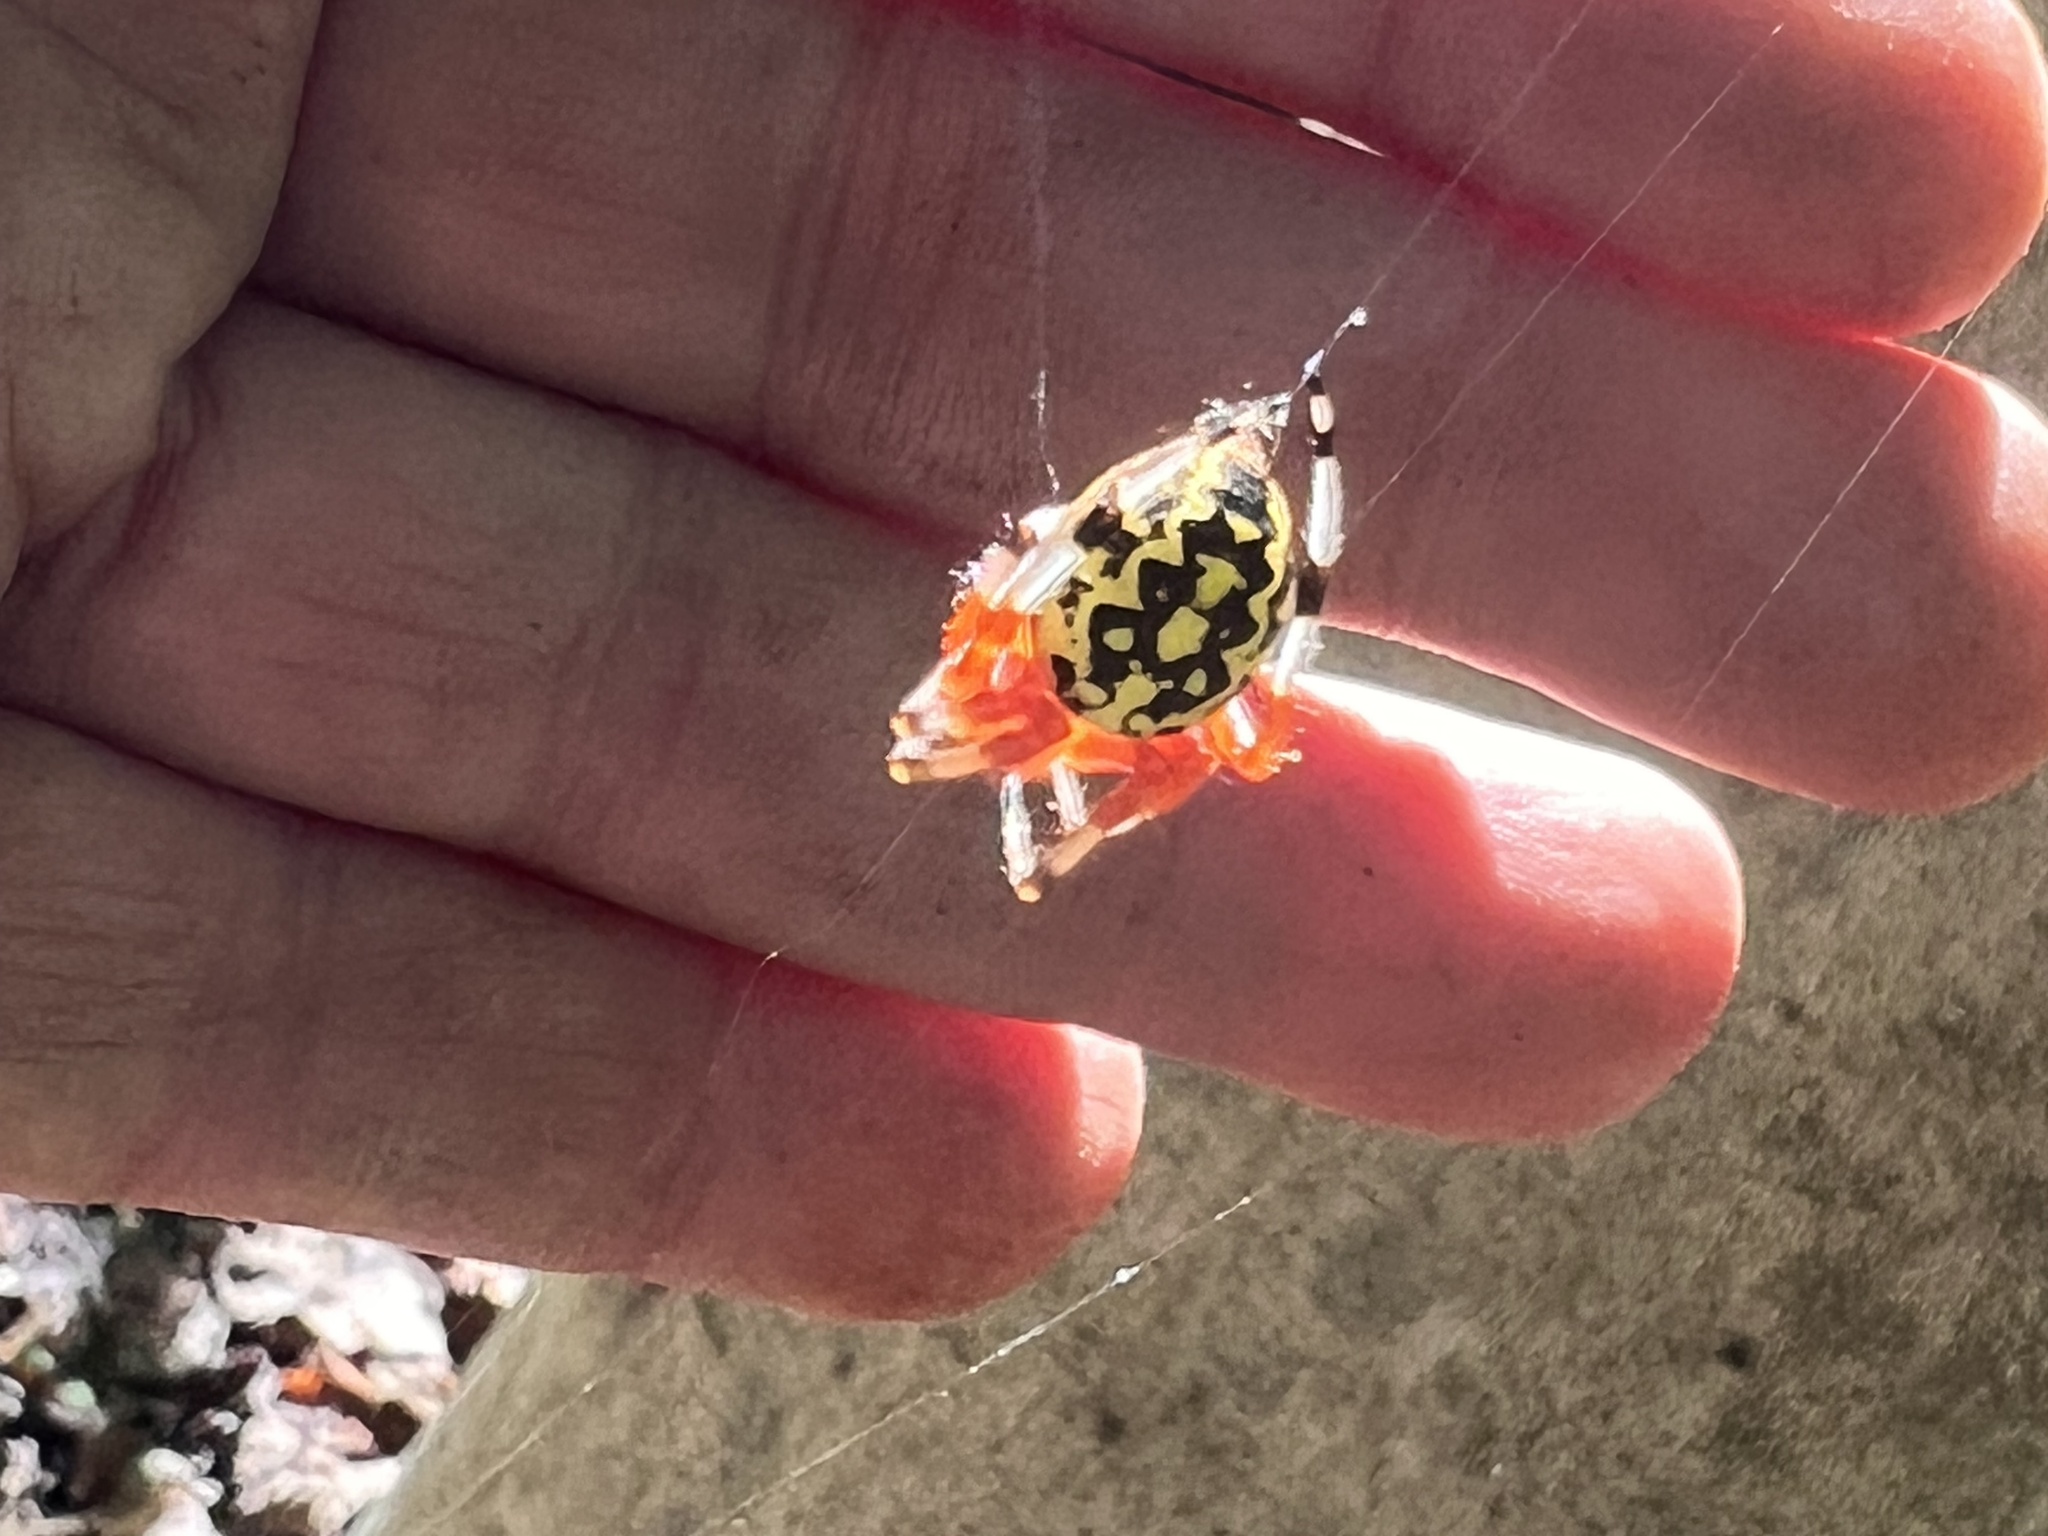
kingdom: Animalia
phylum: Arthropoda
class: Arachnida
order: Araneae
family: Araneidae
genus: Araneus
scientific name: Araneus marmoreus
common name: Marbled orbweaver
